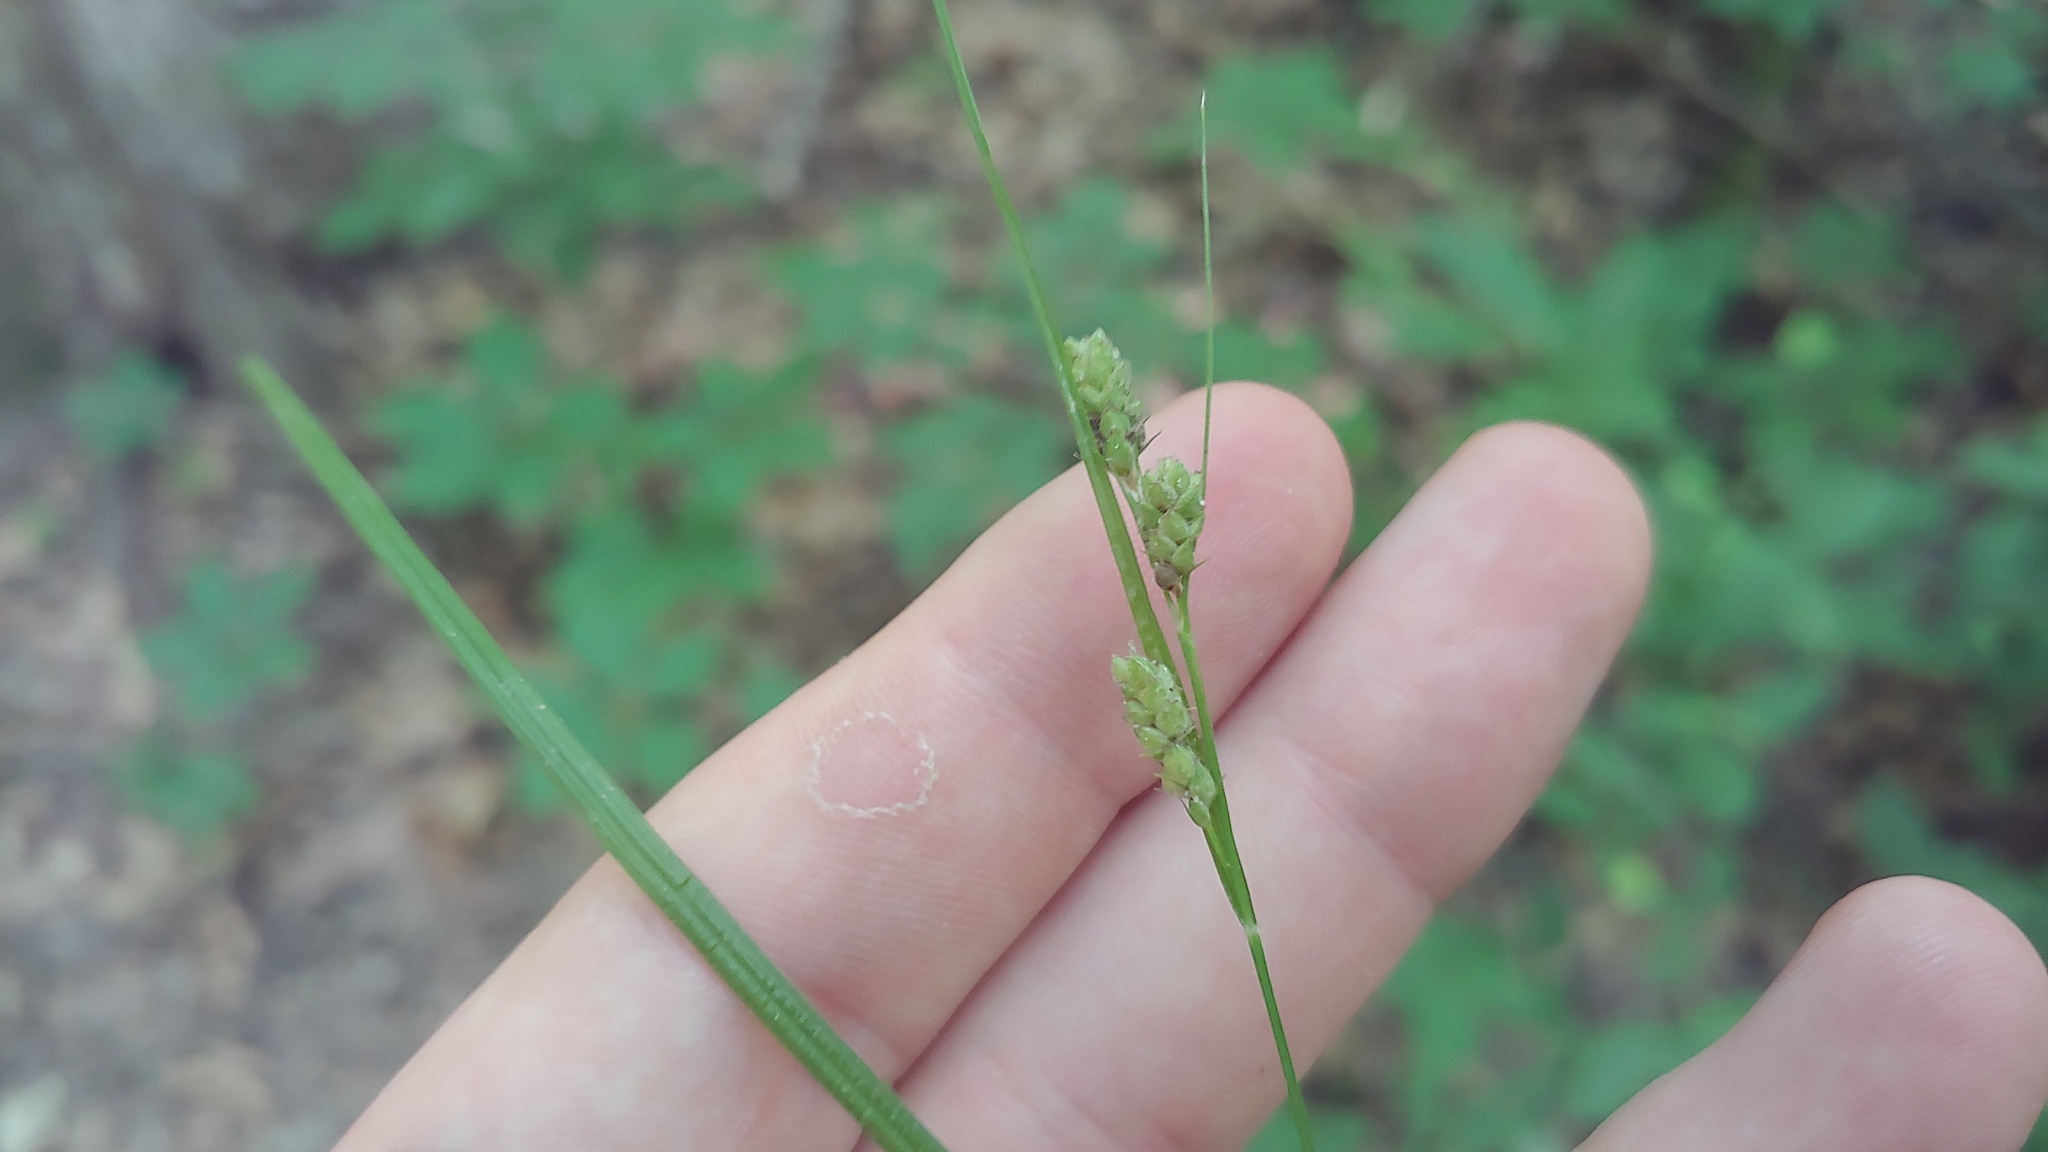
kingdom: Plantae
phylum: Tracheophyta
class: Liliopsida
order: Poales
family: Cyperaceae
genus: Carex
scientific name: Carex swanii
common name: Downy green sedge
